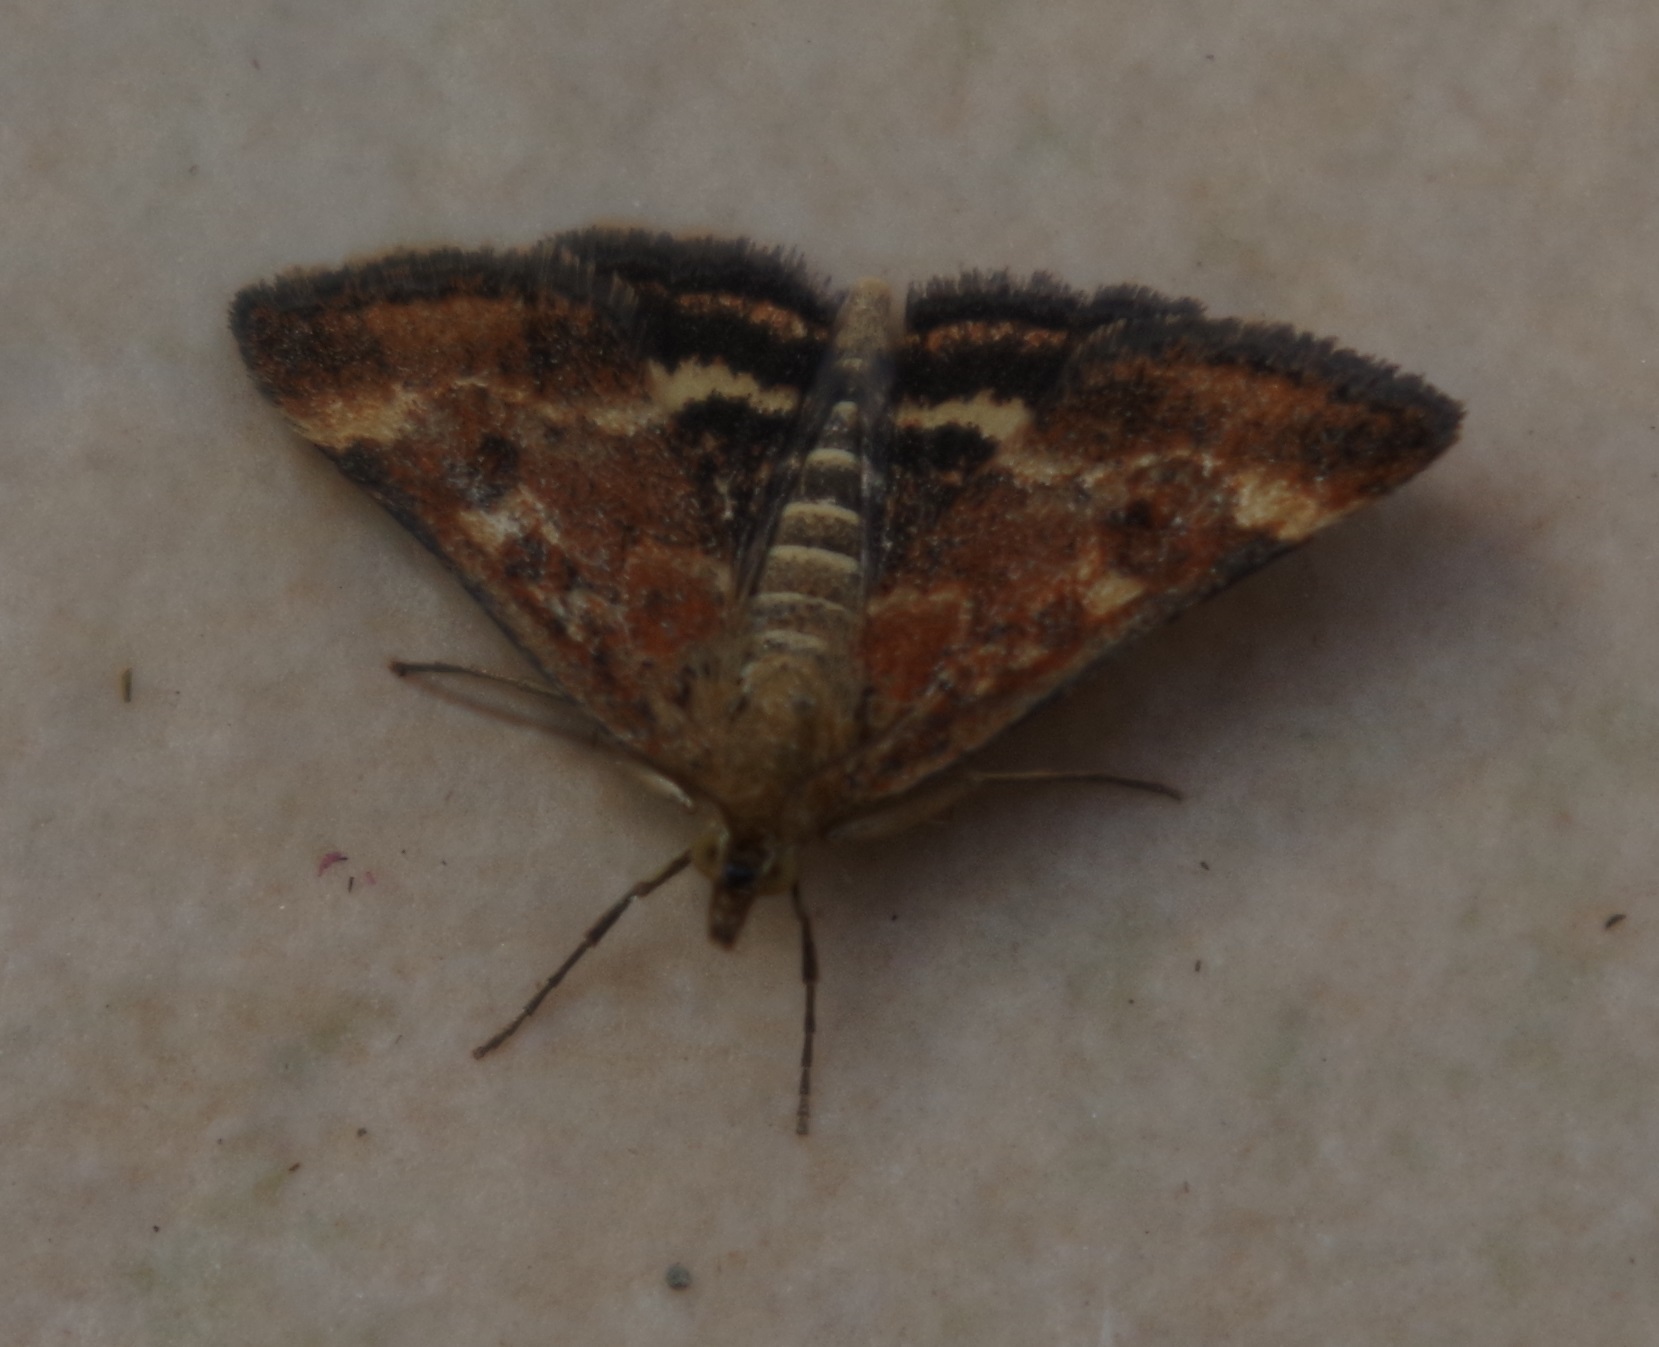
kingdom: Animalia
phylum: Arthropoda
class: Insecta
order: Lepidoptera
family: Crambidae
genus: Pyrausta
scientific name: Pyrausta despicata
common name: Straw-barred pearl
